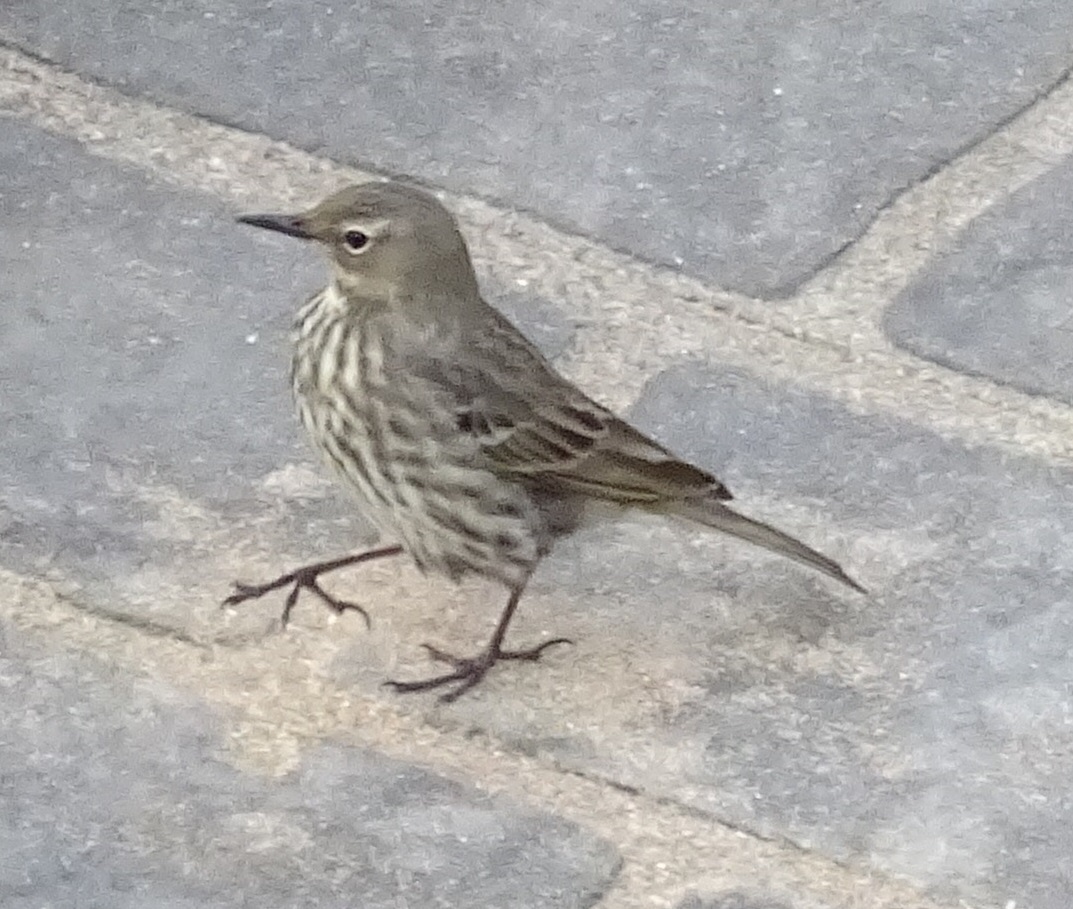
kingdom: Animalia
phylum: Chordata
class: Aves
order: Passeriformes
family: Motacillidae
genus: Anthus
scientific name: Anthus petrosus
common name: Eurasian rock pipit
